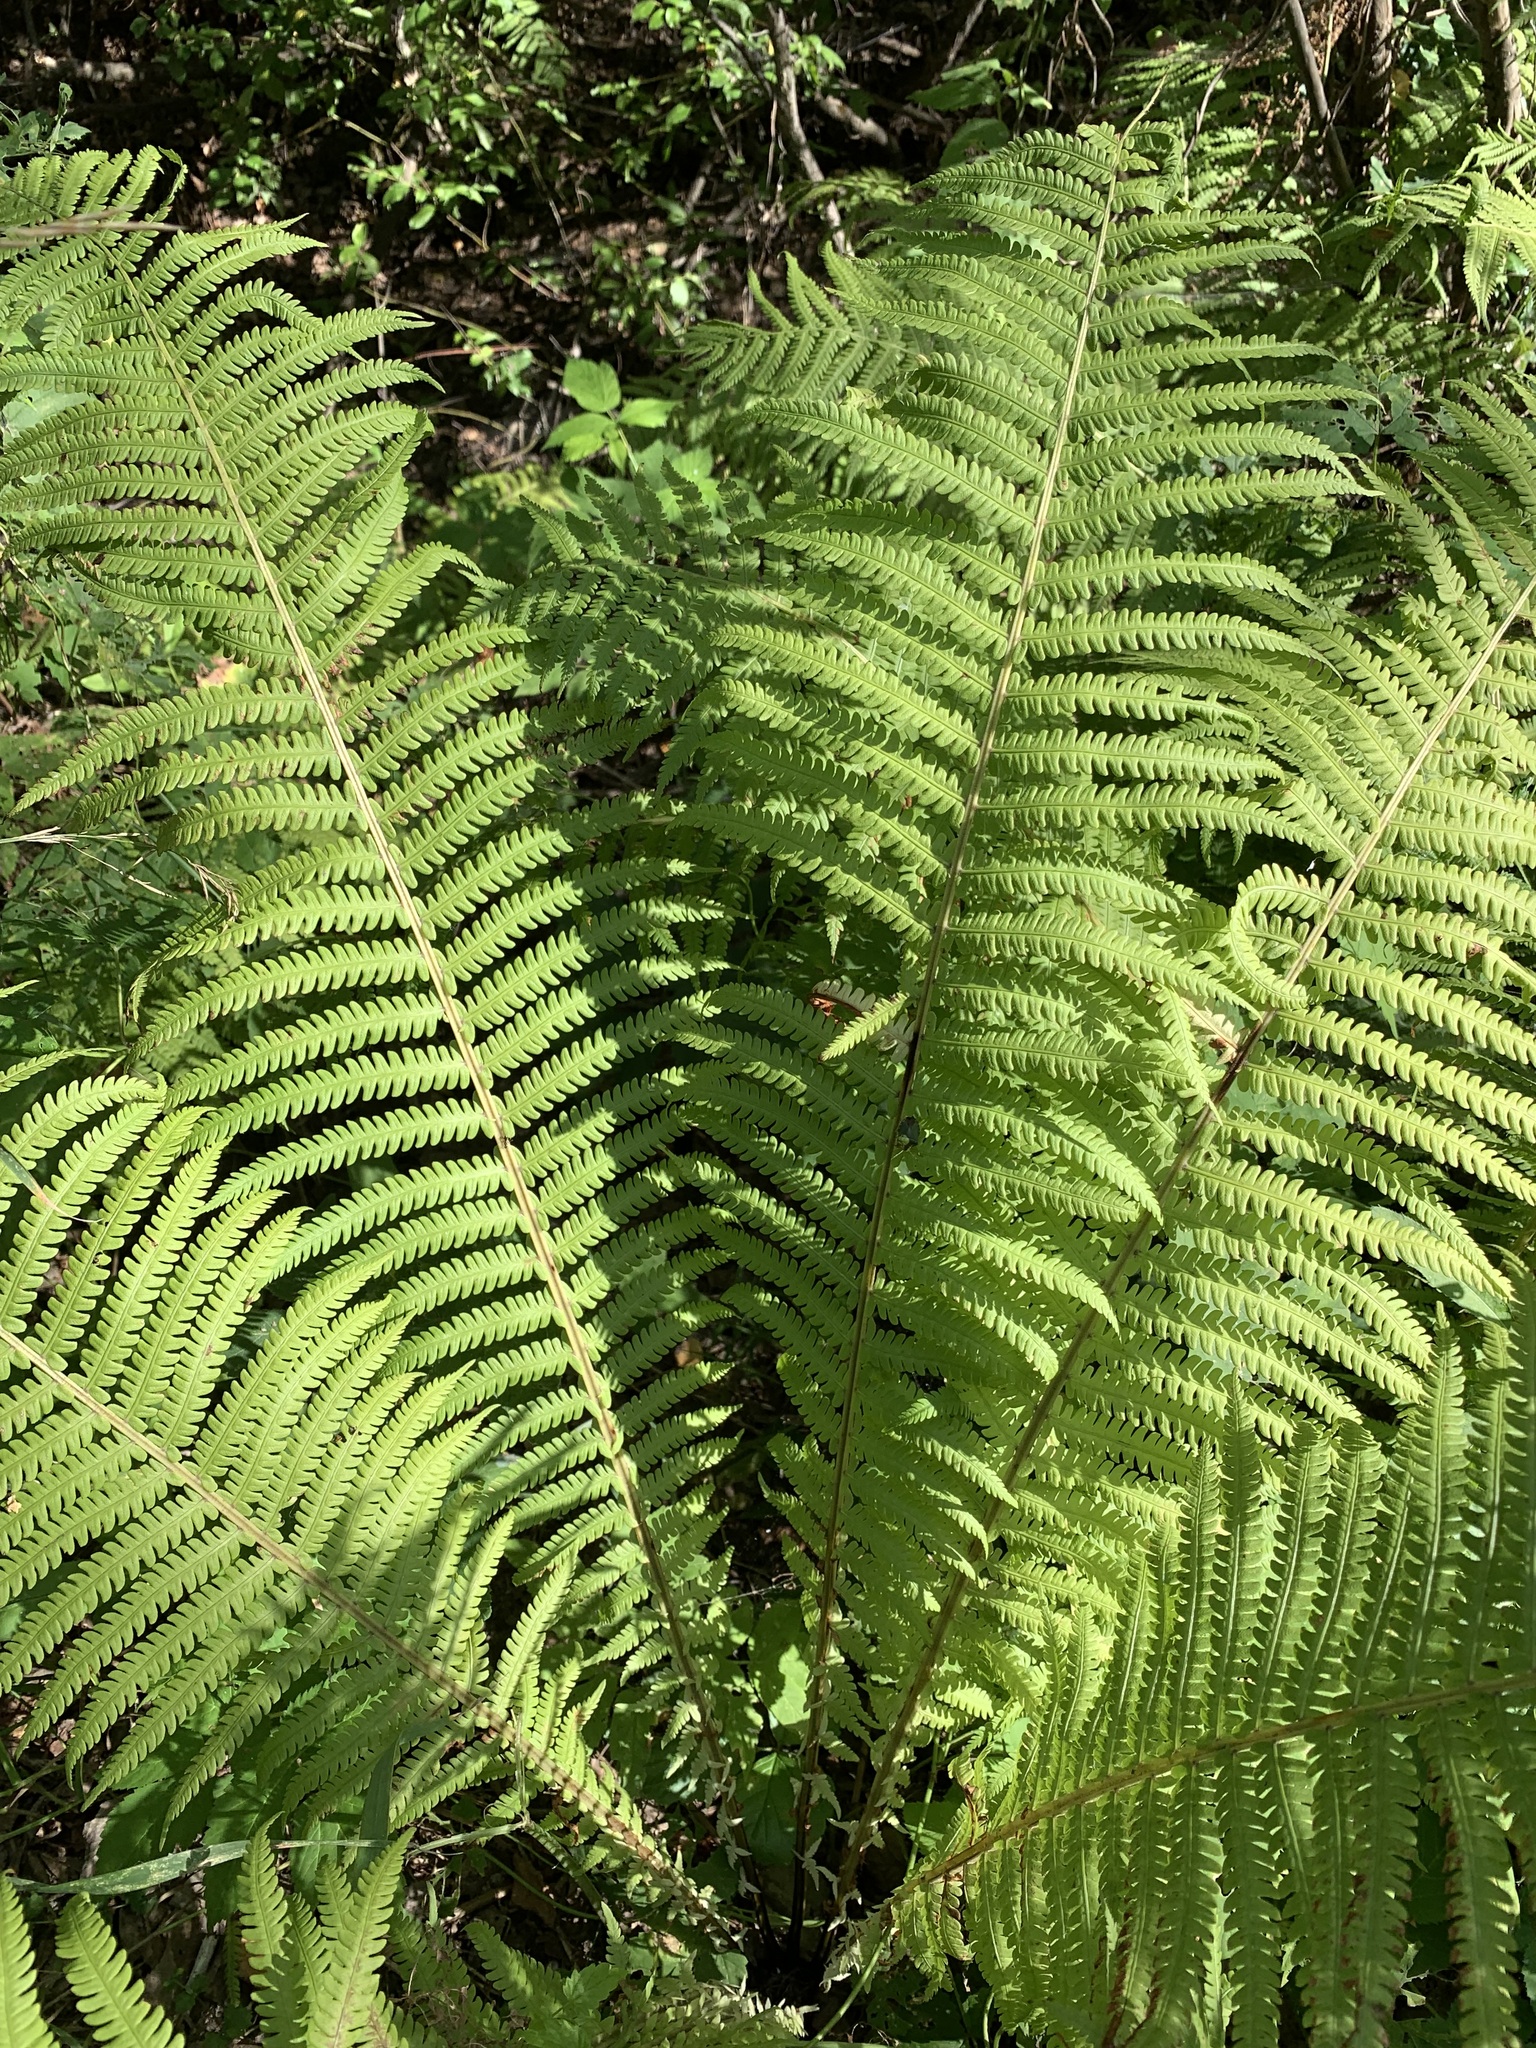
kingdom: Plantae
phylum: Tracheophyta
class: Polypodiopsida
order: Polypodiales
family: Onocleaceae
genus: Matteuccia
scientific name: Matteuccia struthiopteris
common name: Ostrich fern
